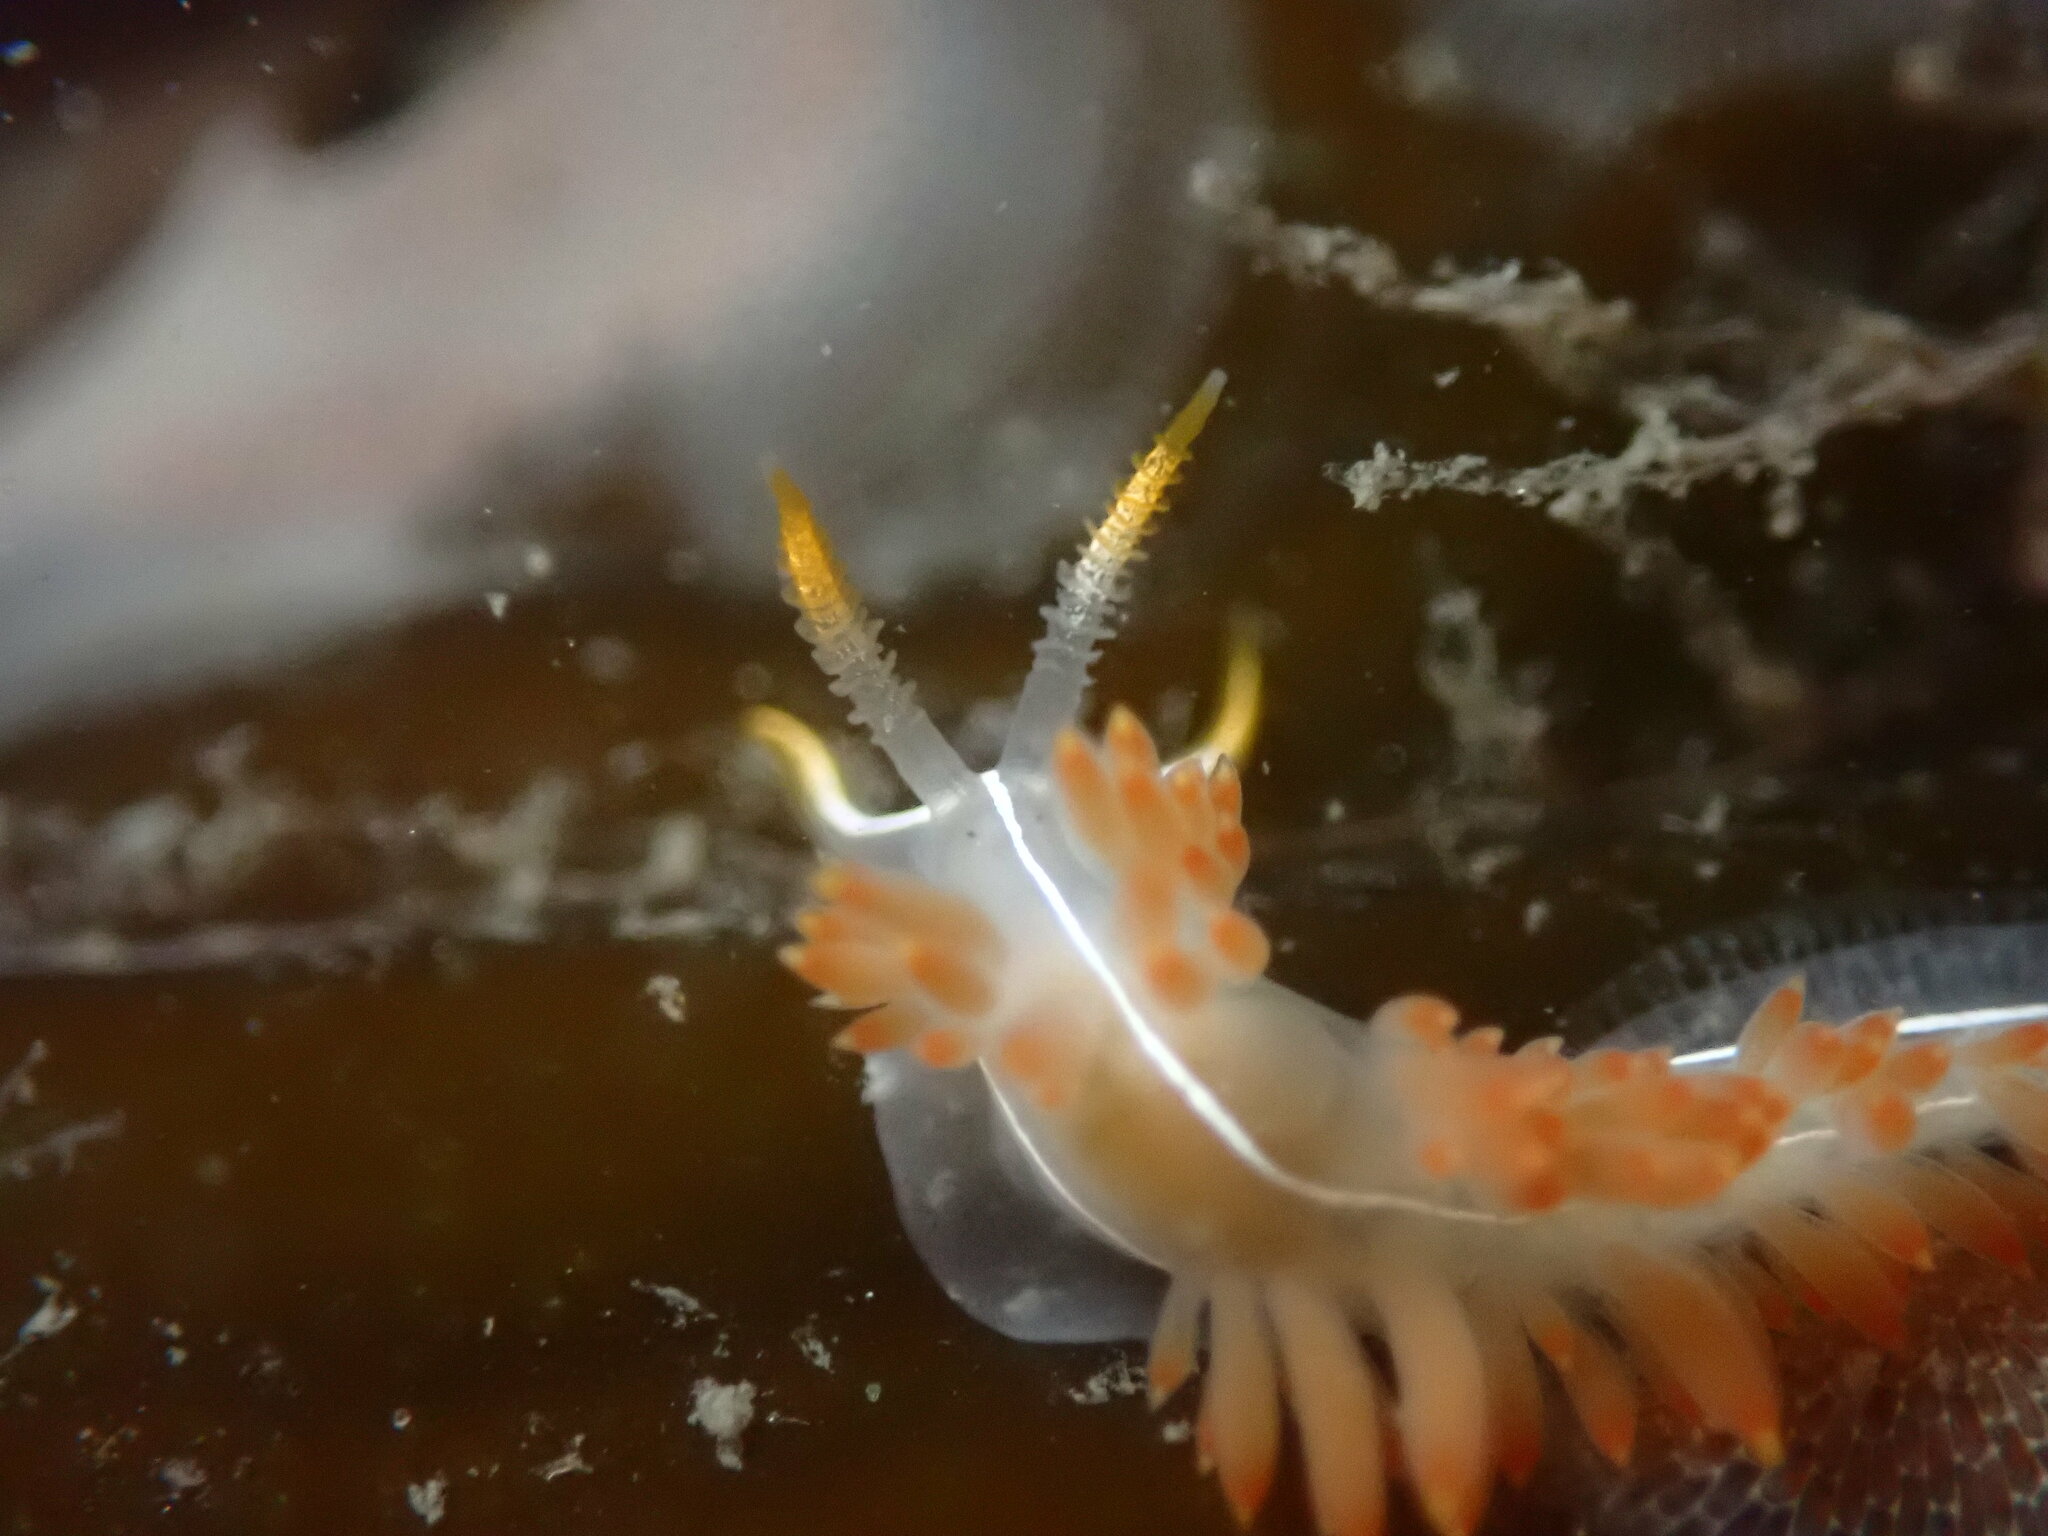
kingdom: Animalia
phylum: Mollusca
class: Gastropoda
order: Nudibranchia
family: Coryphellidae
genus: Coryphella
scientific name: Coryphella trilineata
